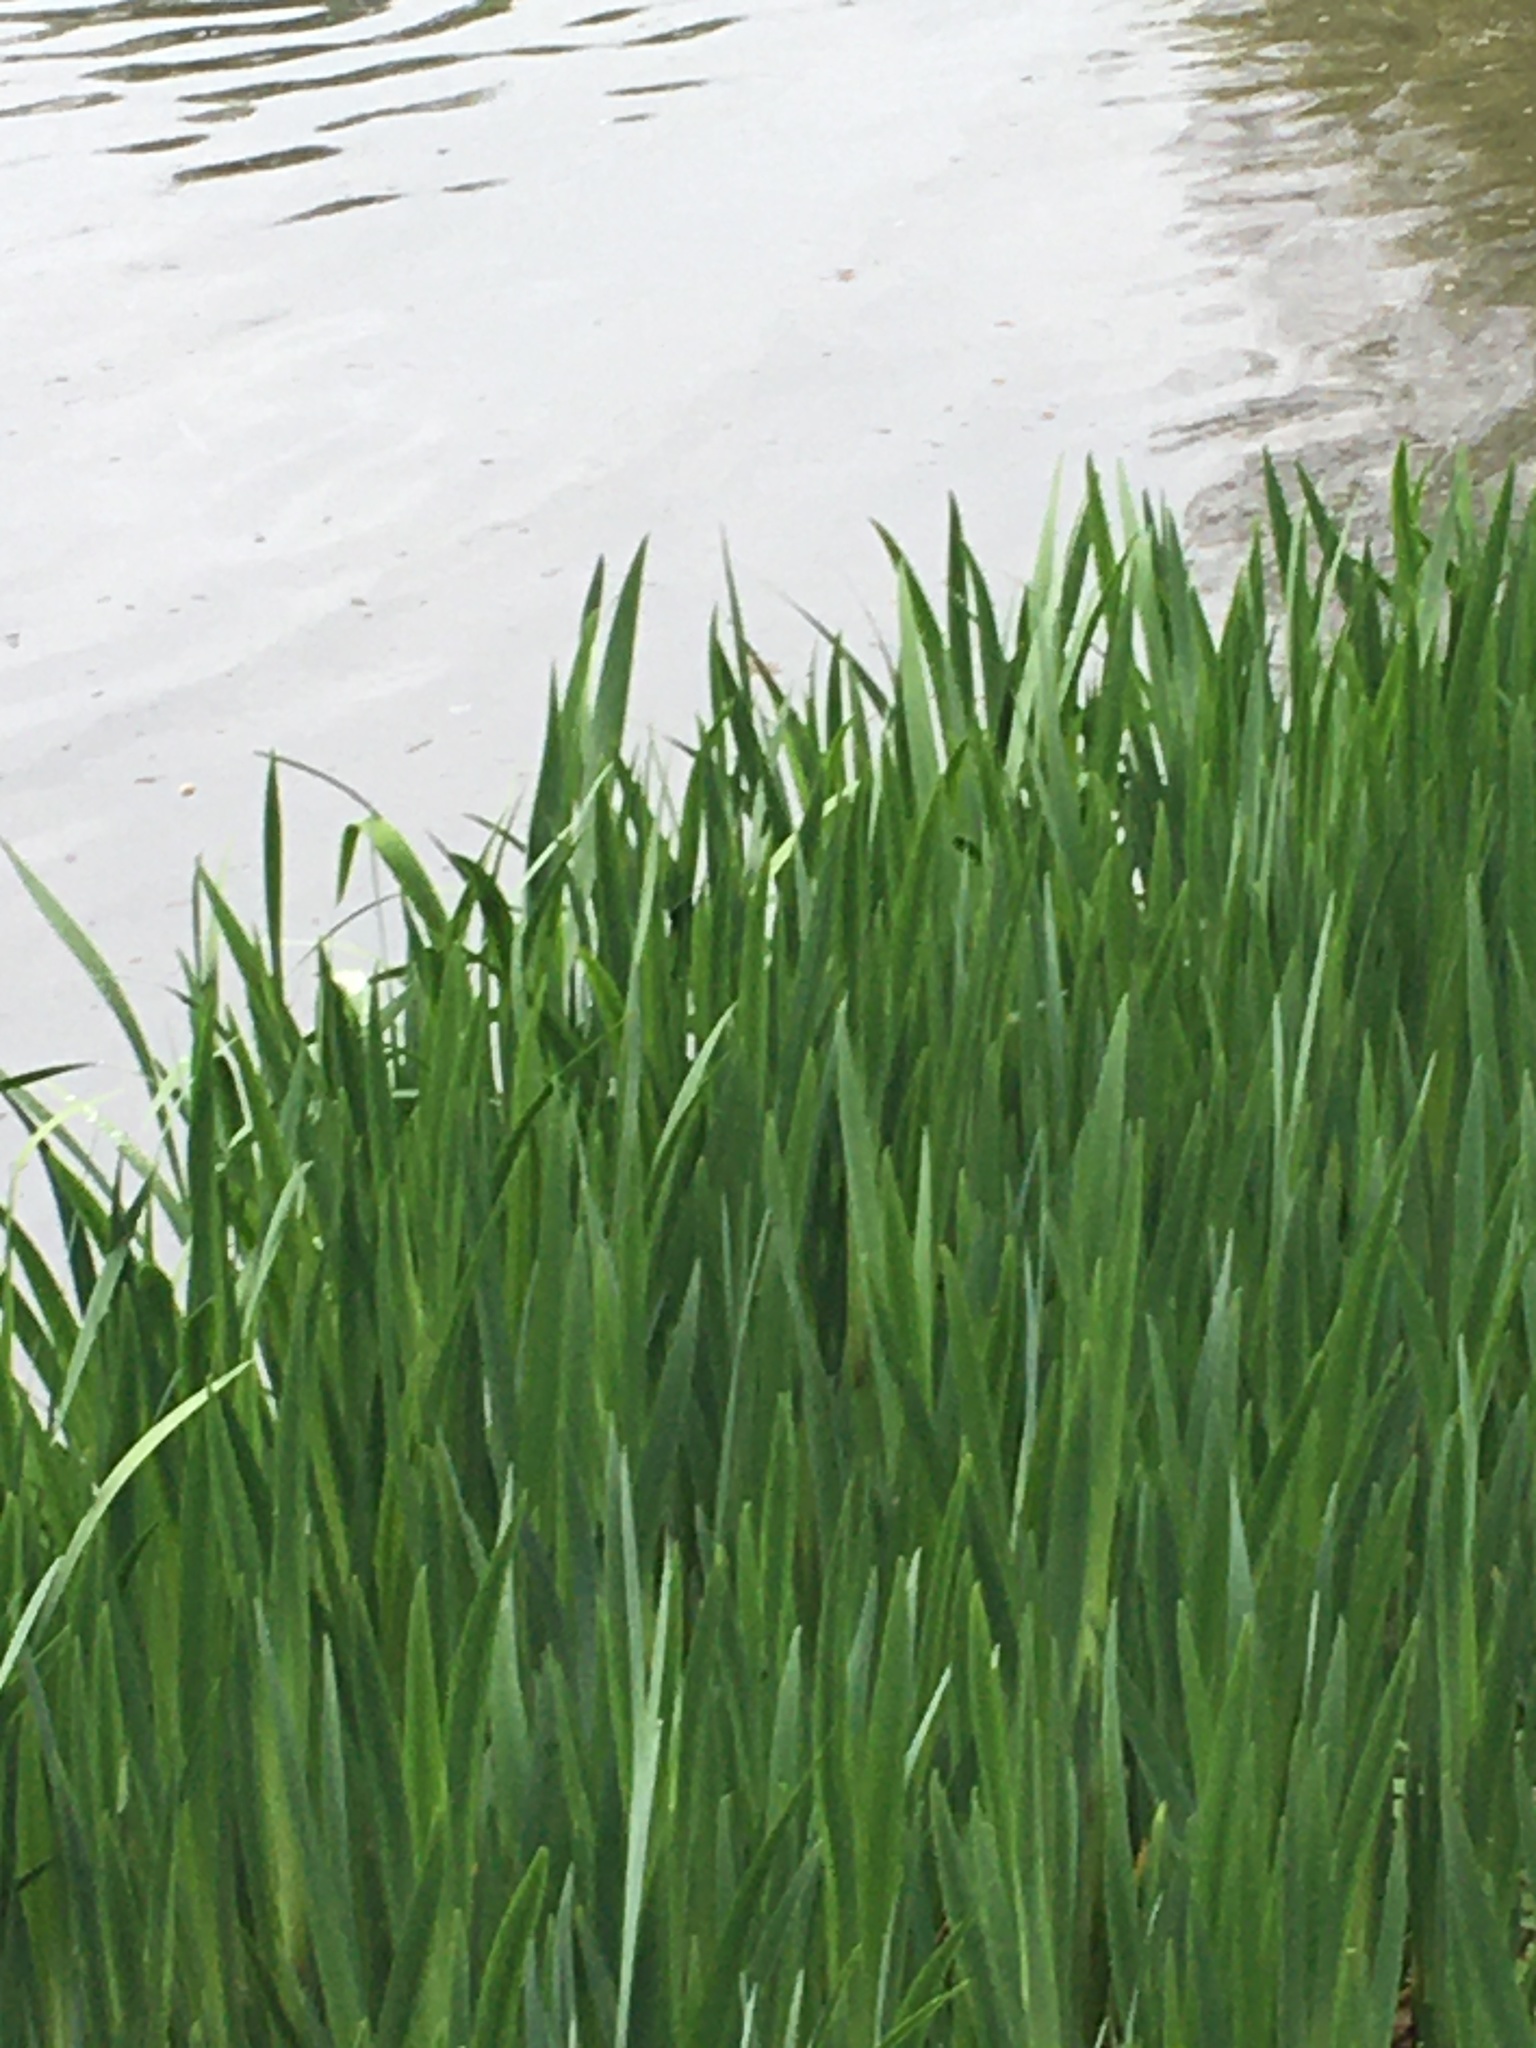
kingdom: Plantae
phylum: Tracheophyta
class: Liliopsida
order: Asparagales
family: Iridaceae
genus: Iris
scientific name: Iris pseudacorus
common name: Yellow flag
